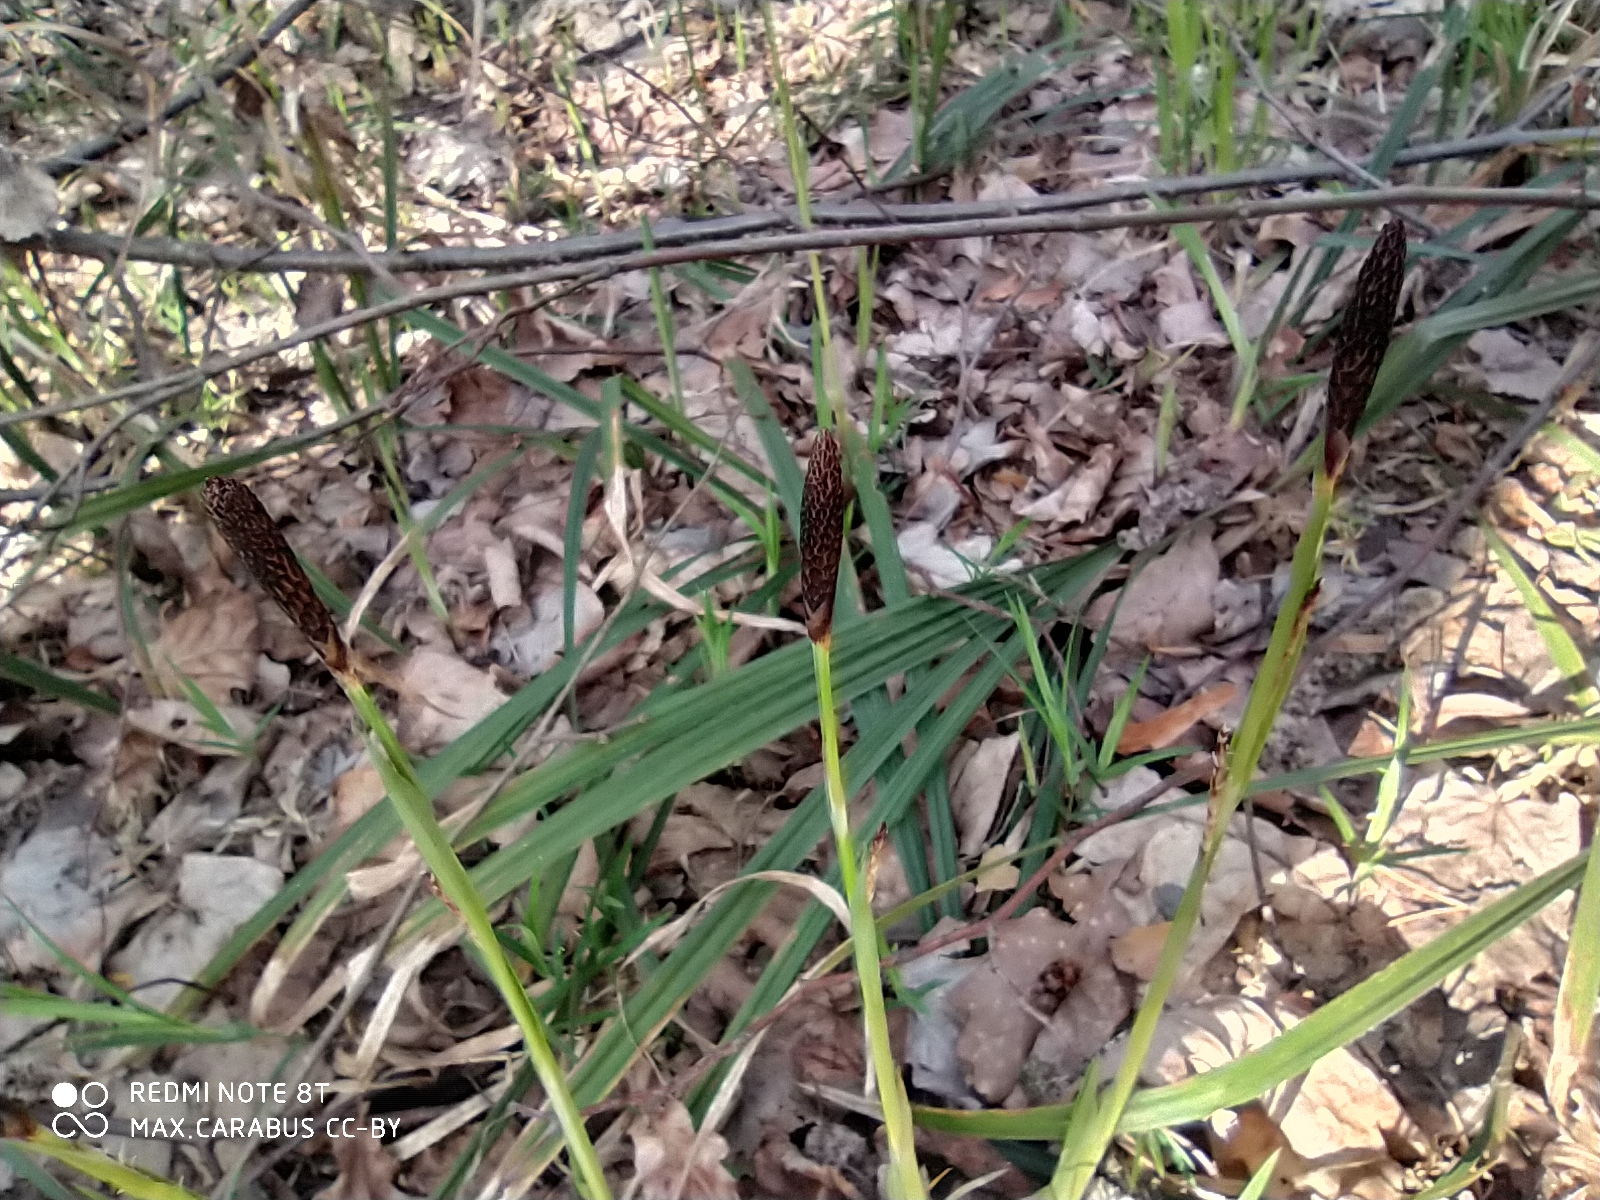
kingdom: Plantae
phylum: Tracheophyta
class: Liliopsida
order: Poales
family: Cyperaceae
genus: Carex
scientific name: Carex pilosa
